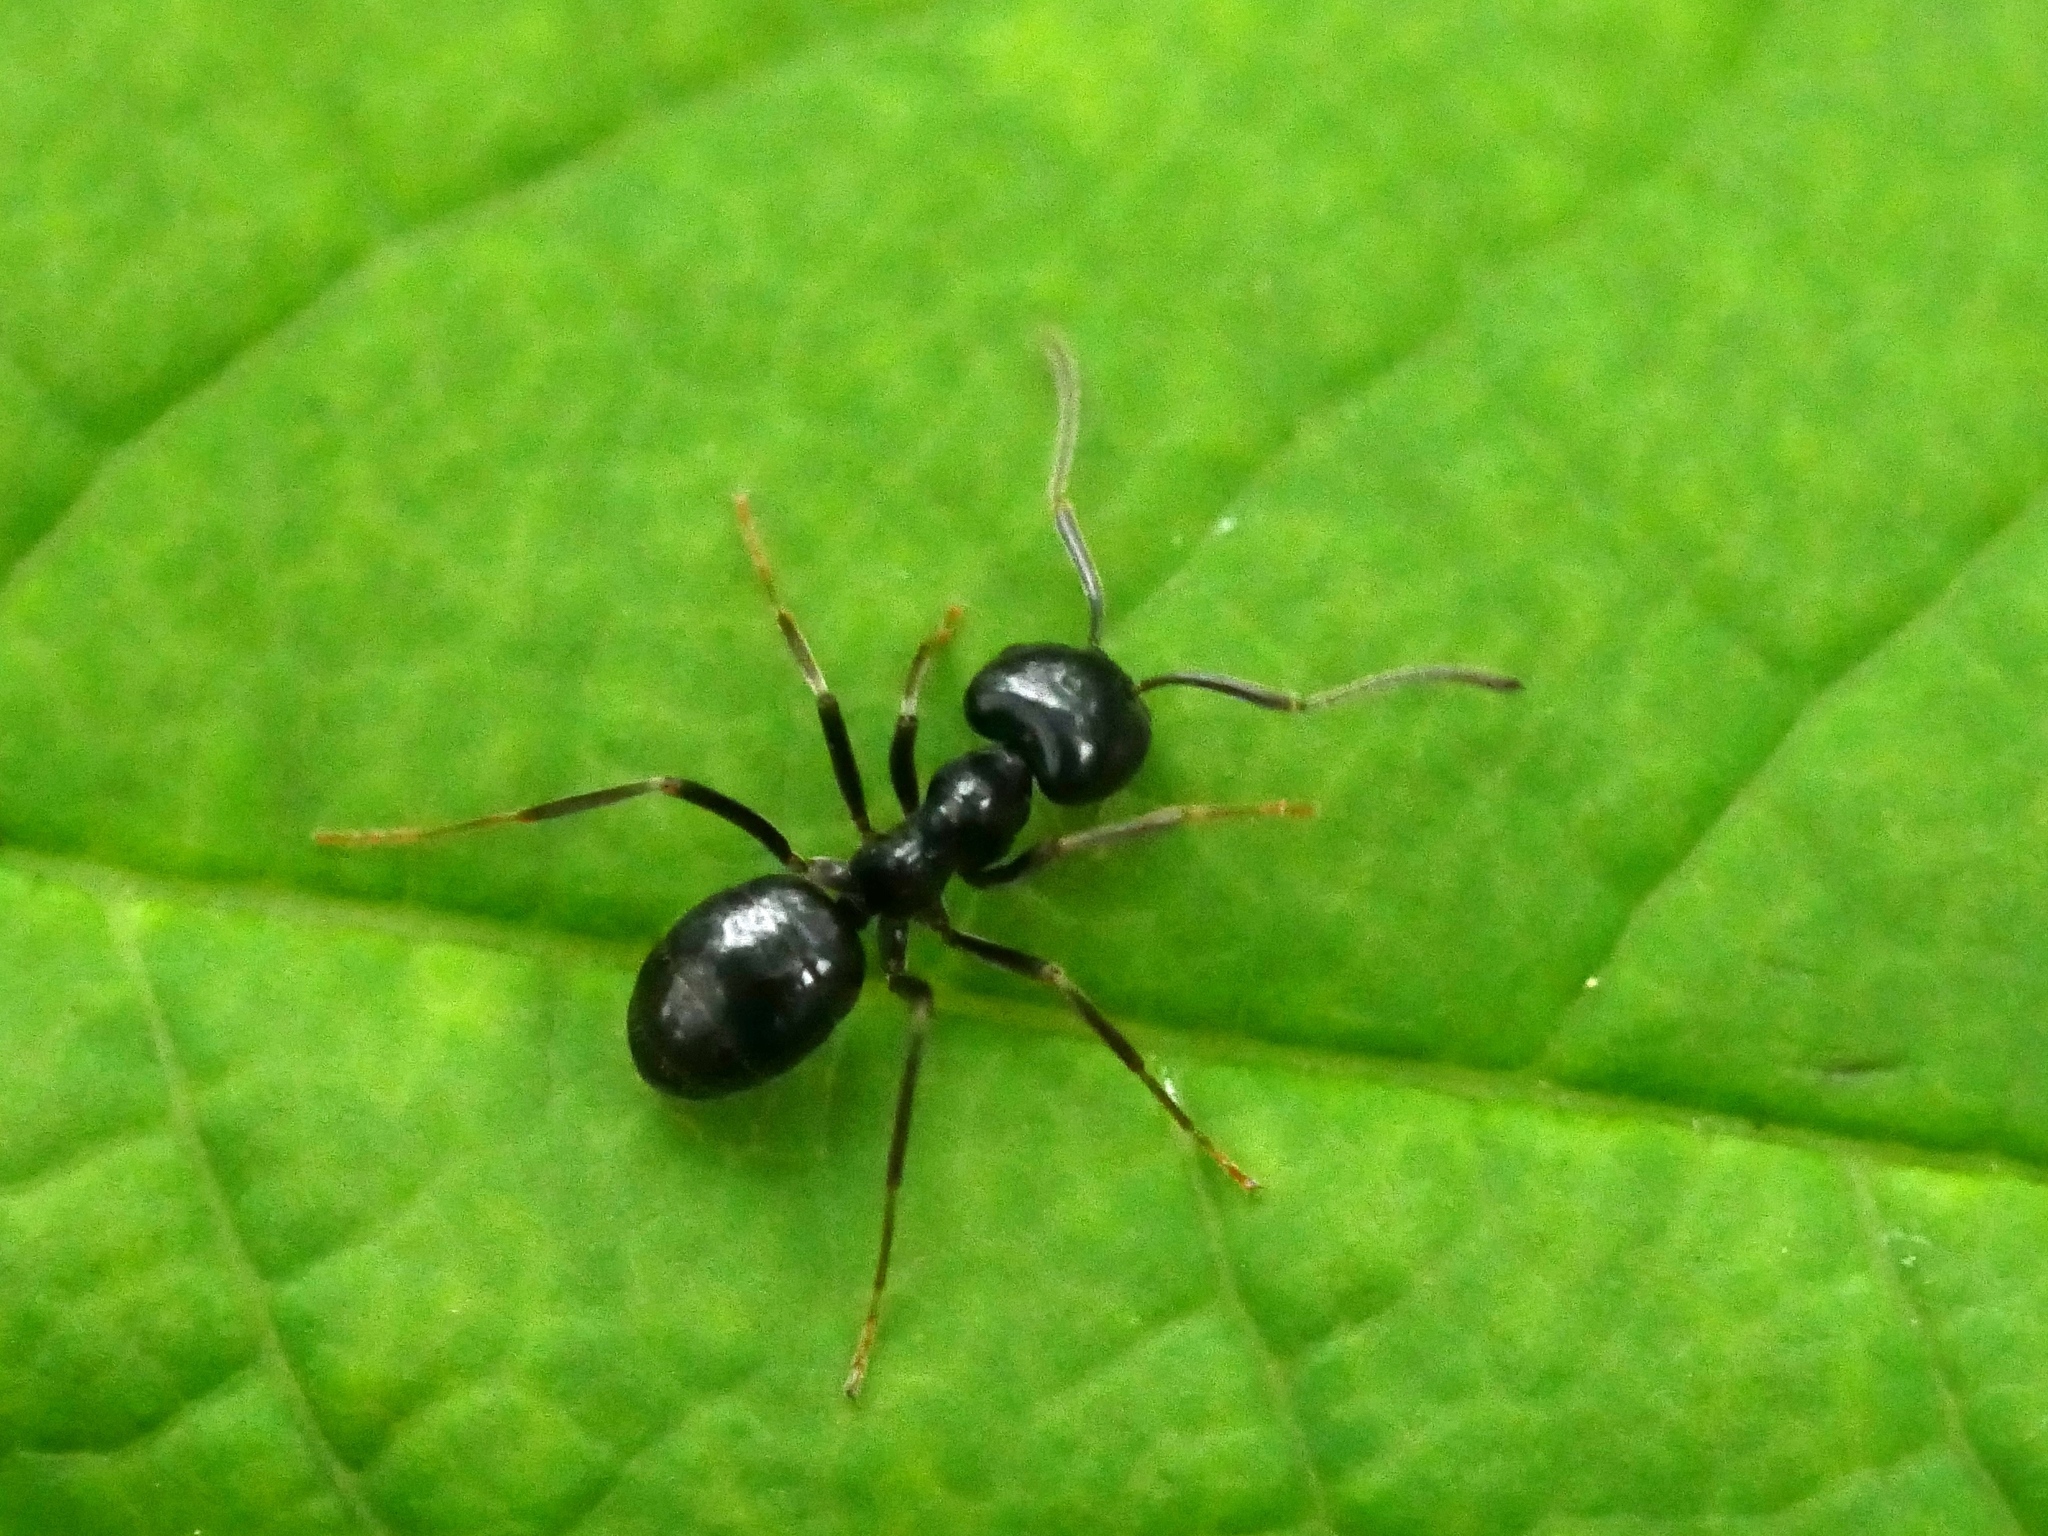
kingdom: Animalia
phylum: Arthropoda
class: Insecta
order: Hymenoptera
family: Formicidae
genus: Lasius
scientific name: Lasius fuliginosus
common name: Jet ant
